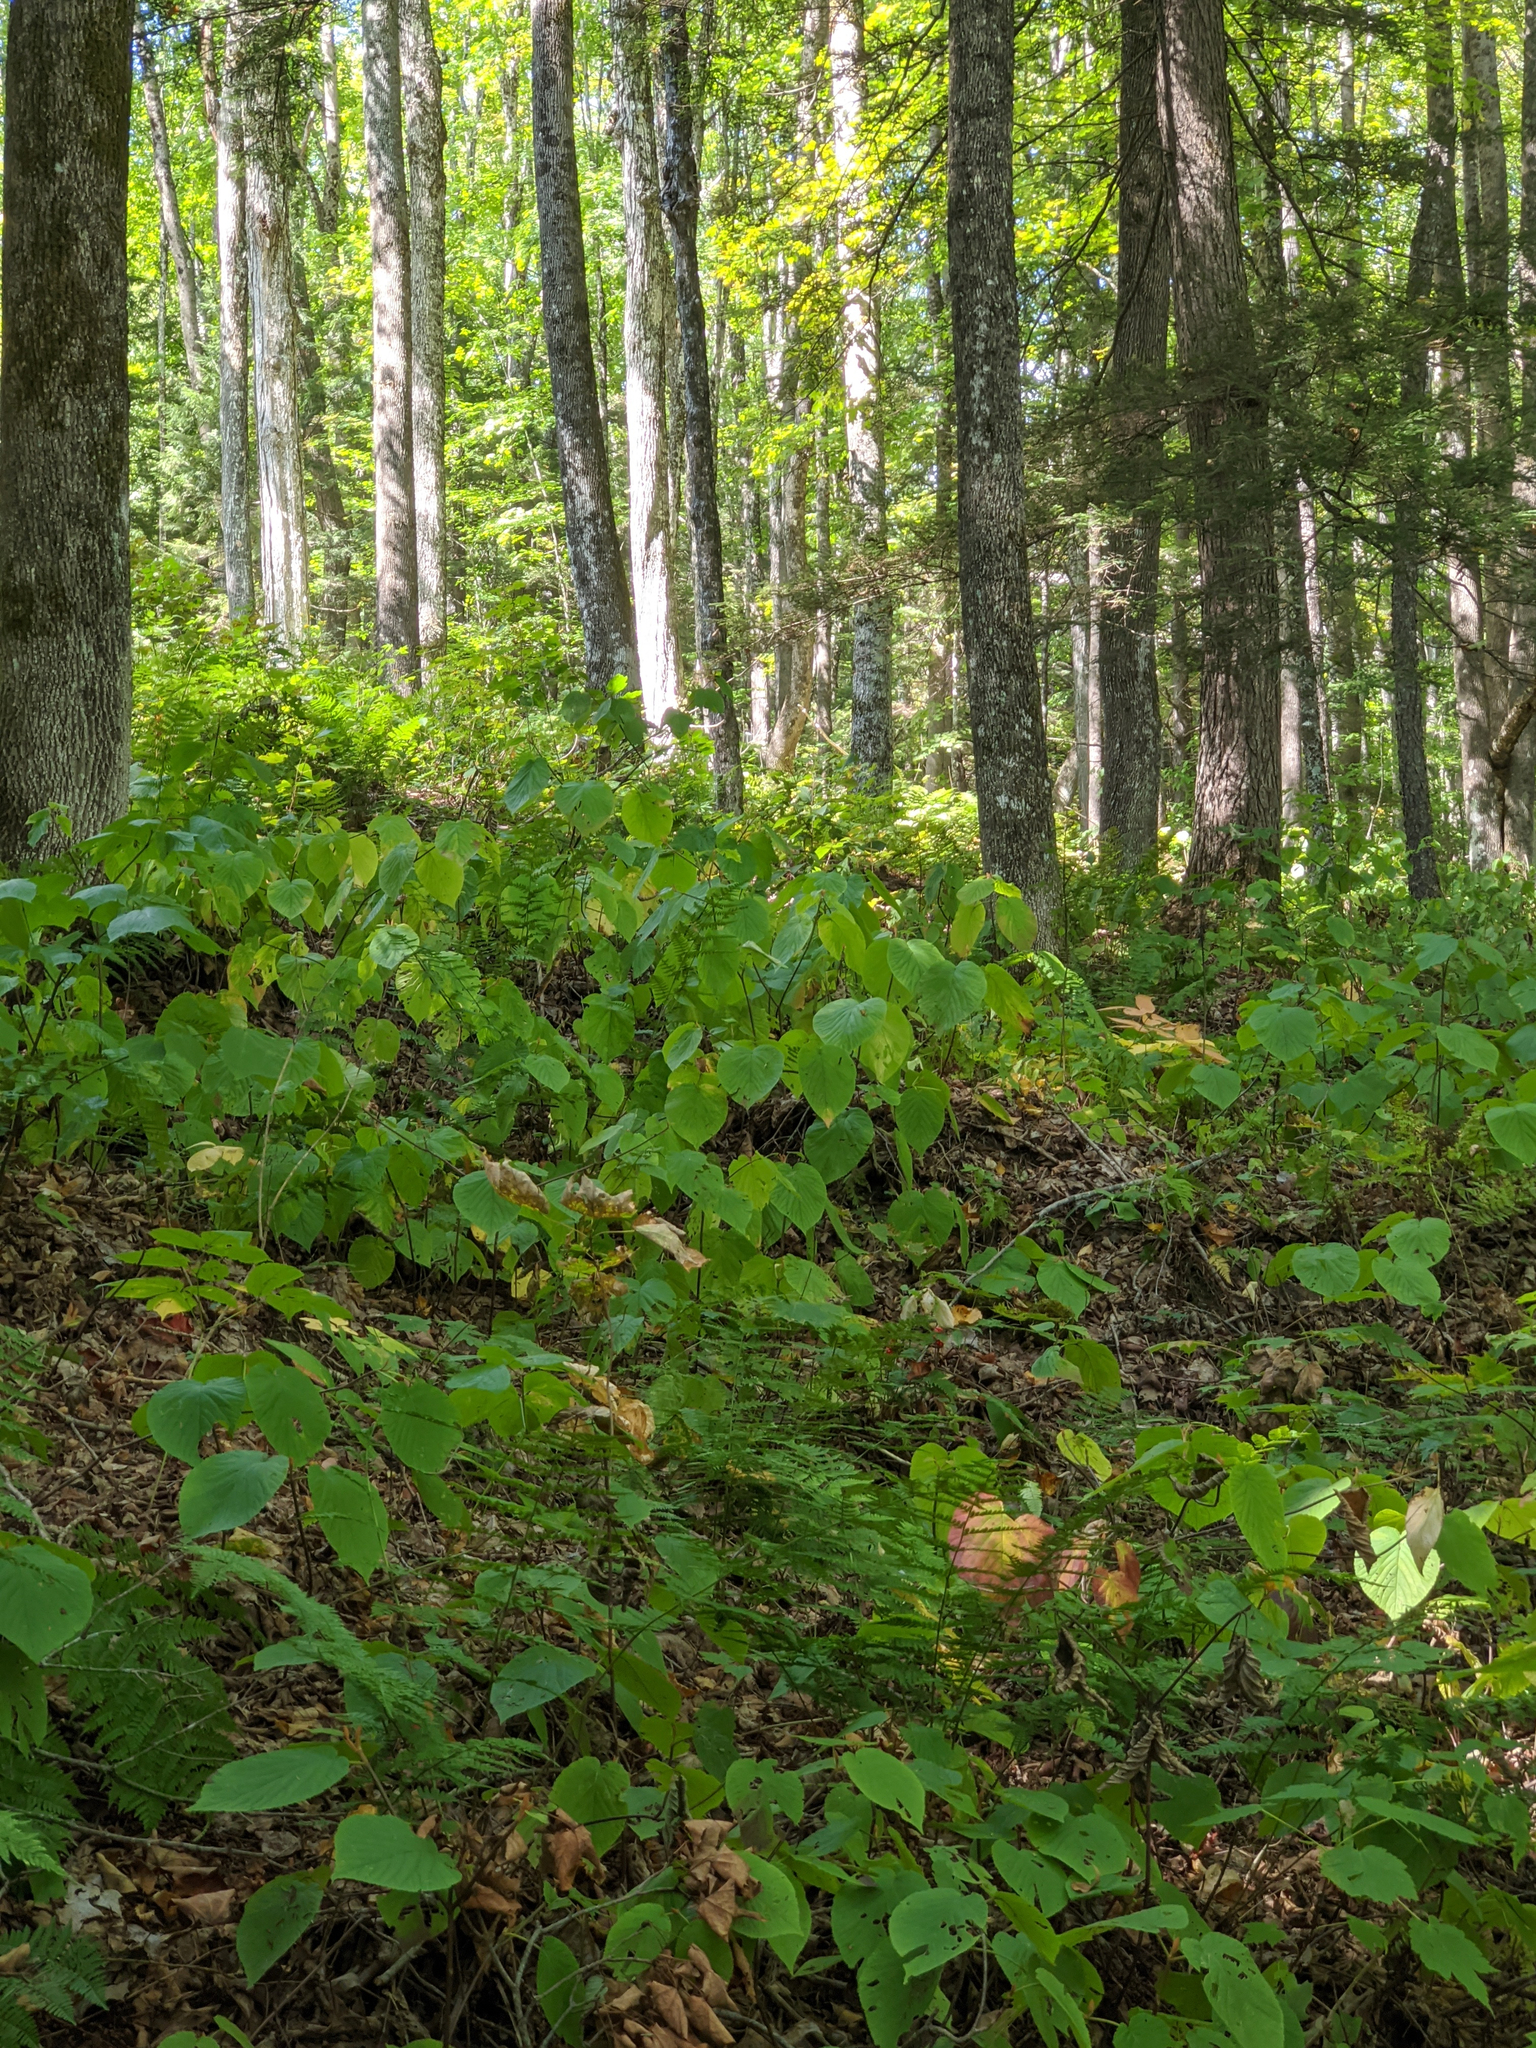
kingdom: Plantae
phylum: Tracheophyta
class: Magnoliopsida
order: Dipsacales
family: Viburnaceae
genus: Viburnum
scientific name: Viburnum lantanoides
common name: Hobblebush
